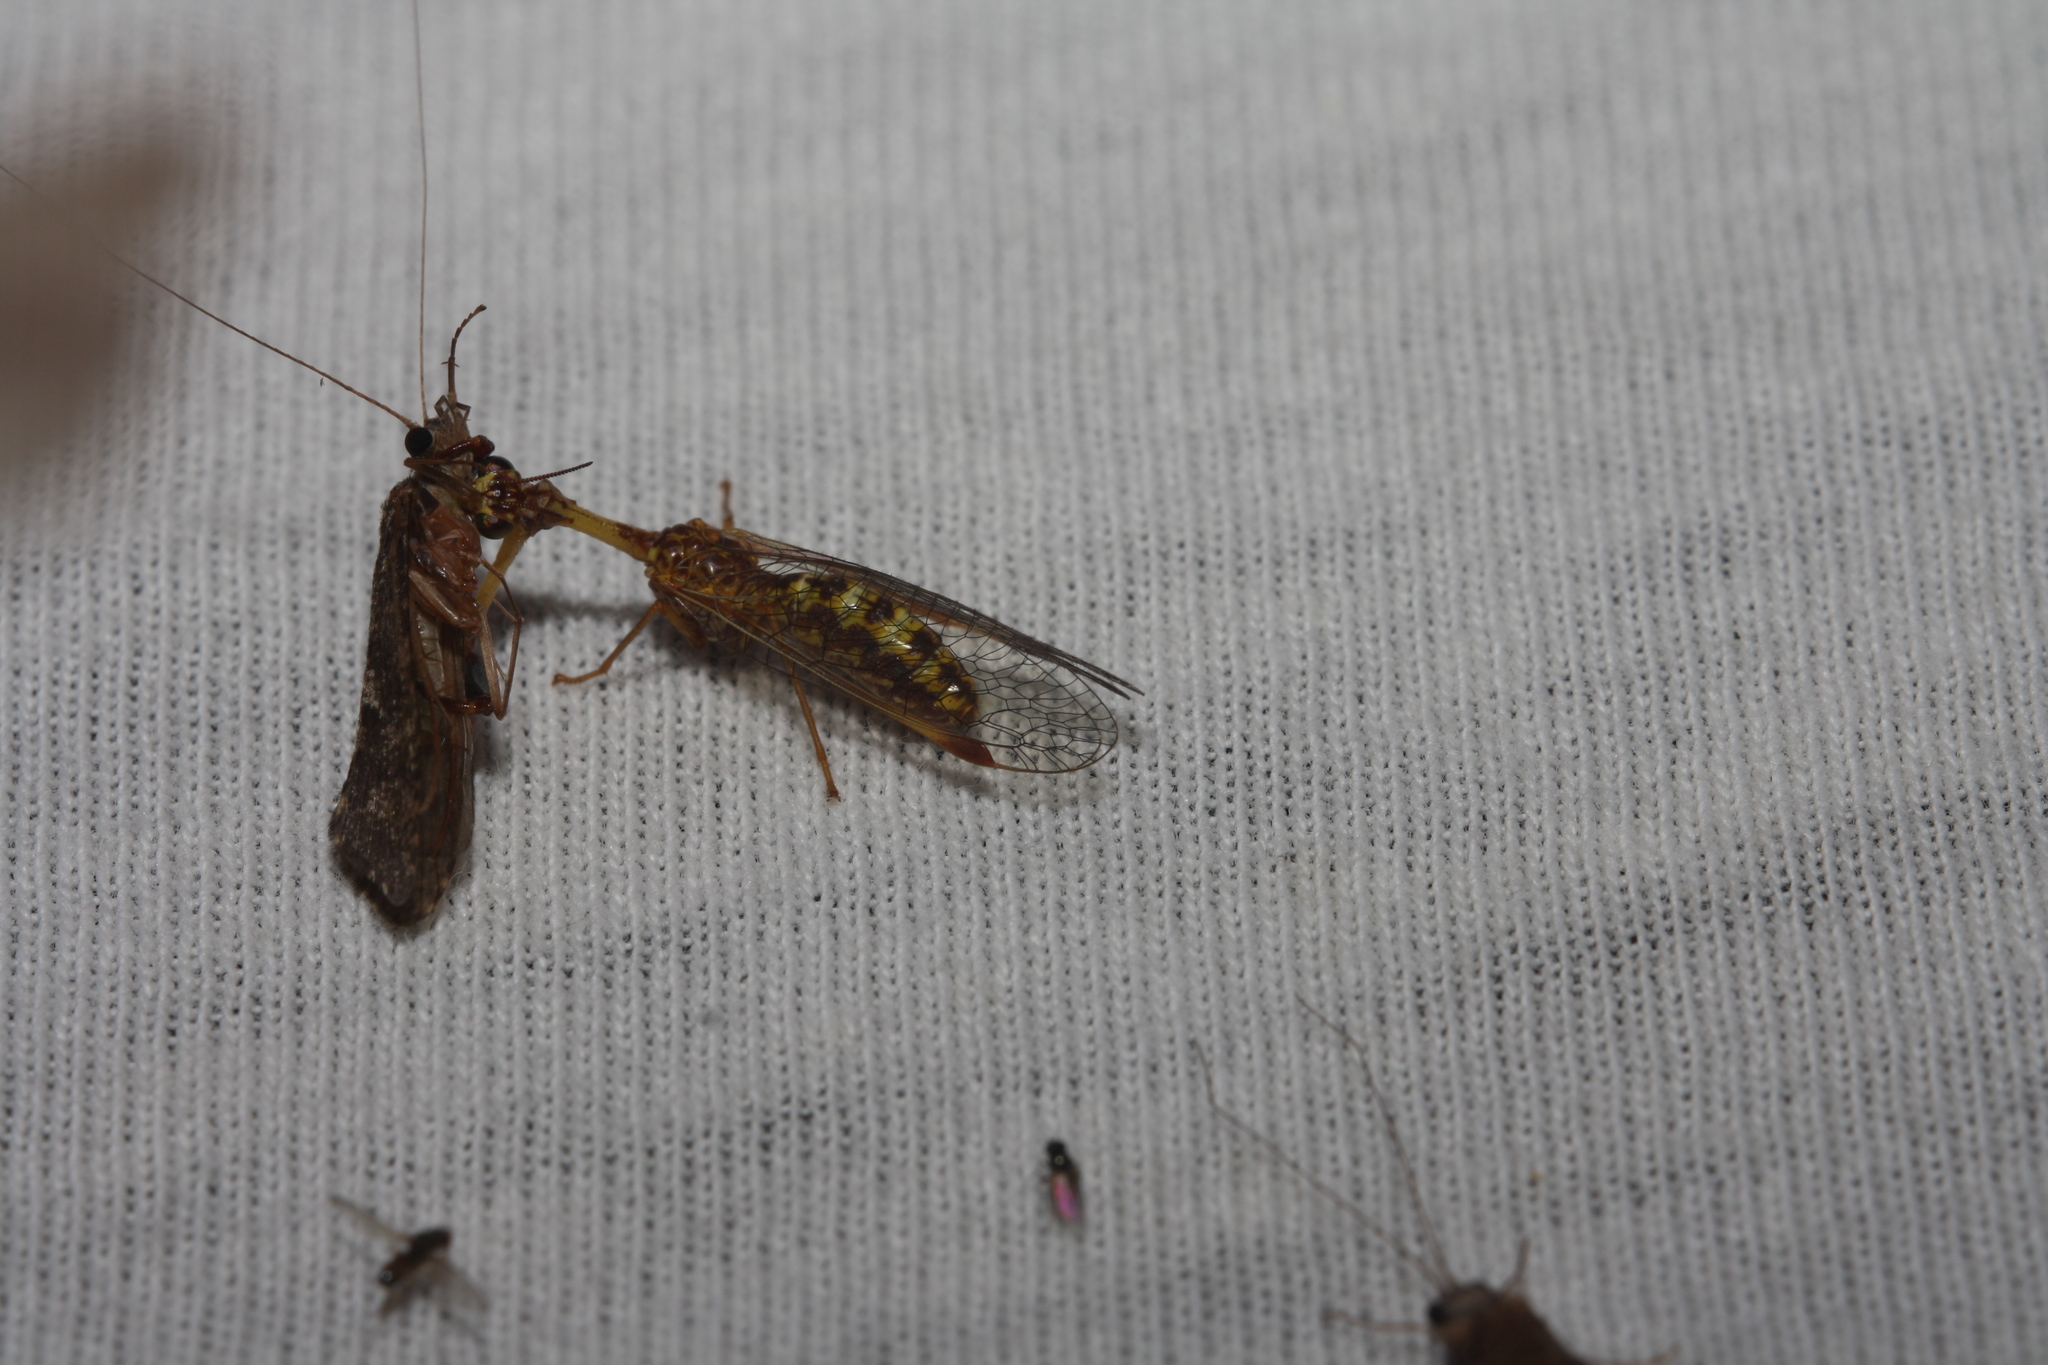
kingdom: Animalia
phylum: Arthropoda
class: Insecta
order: Neuroptera
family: Mantispidae
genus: Mantispa
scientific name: Mantispa styriaca
